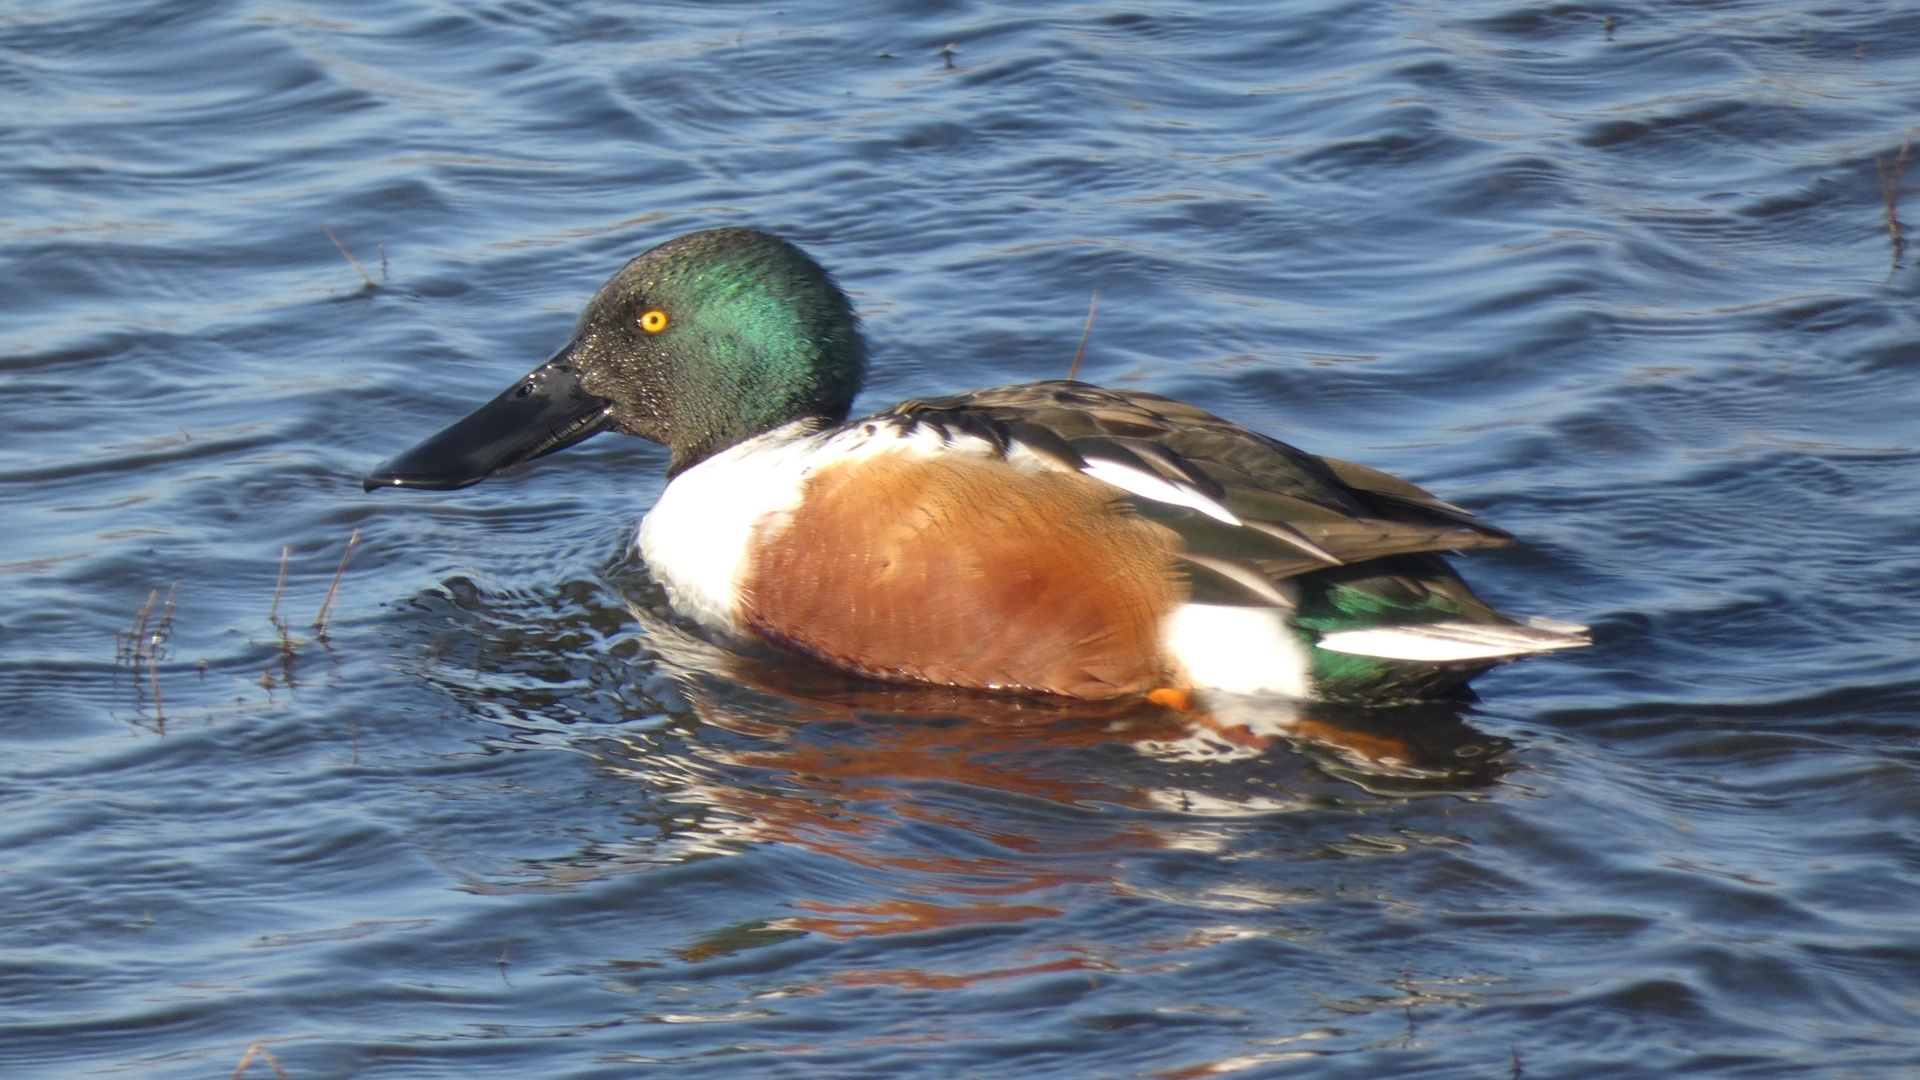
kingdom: Animalia
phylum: Chordata
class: Aves
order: Anseriformes
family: Anatidae
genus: Spatula
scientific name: Spatula clypeata
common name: Northern shoveler
